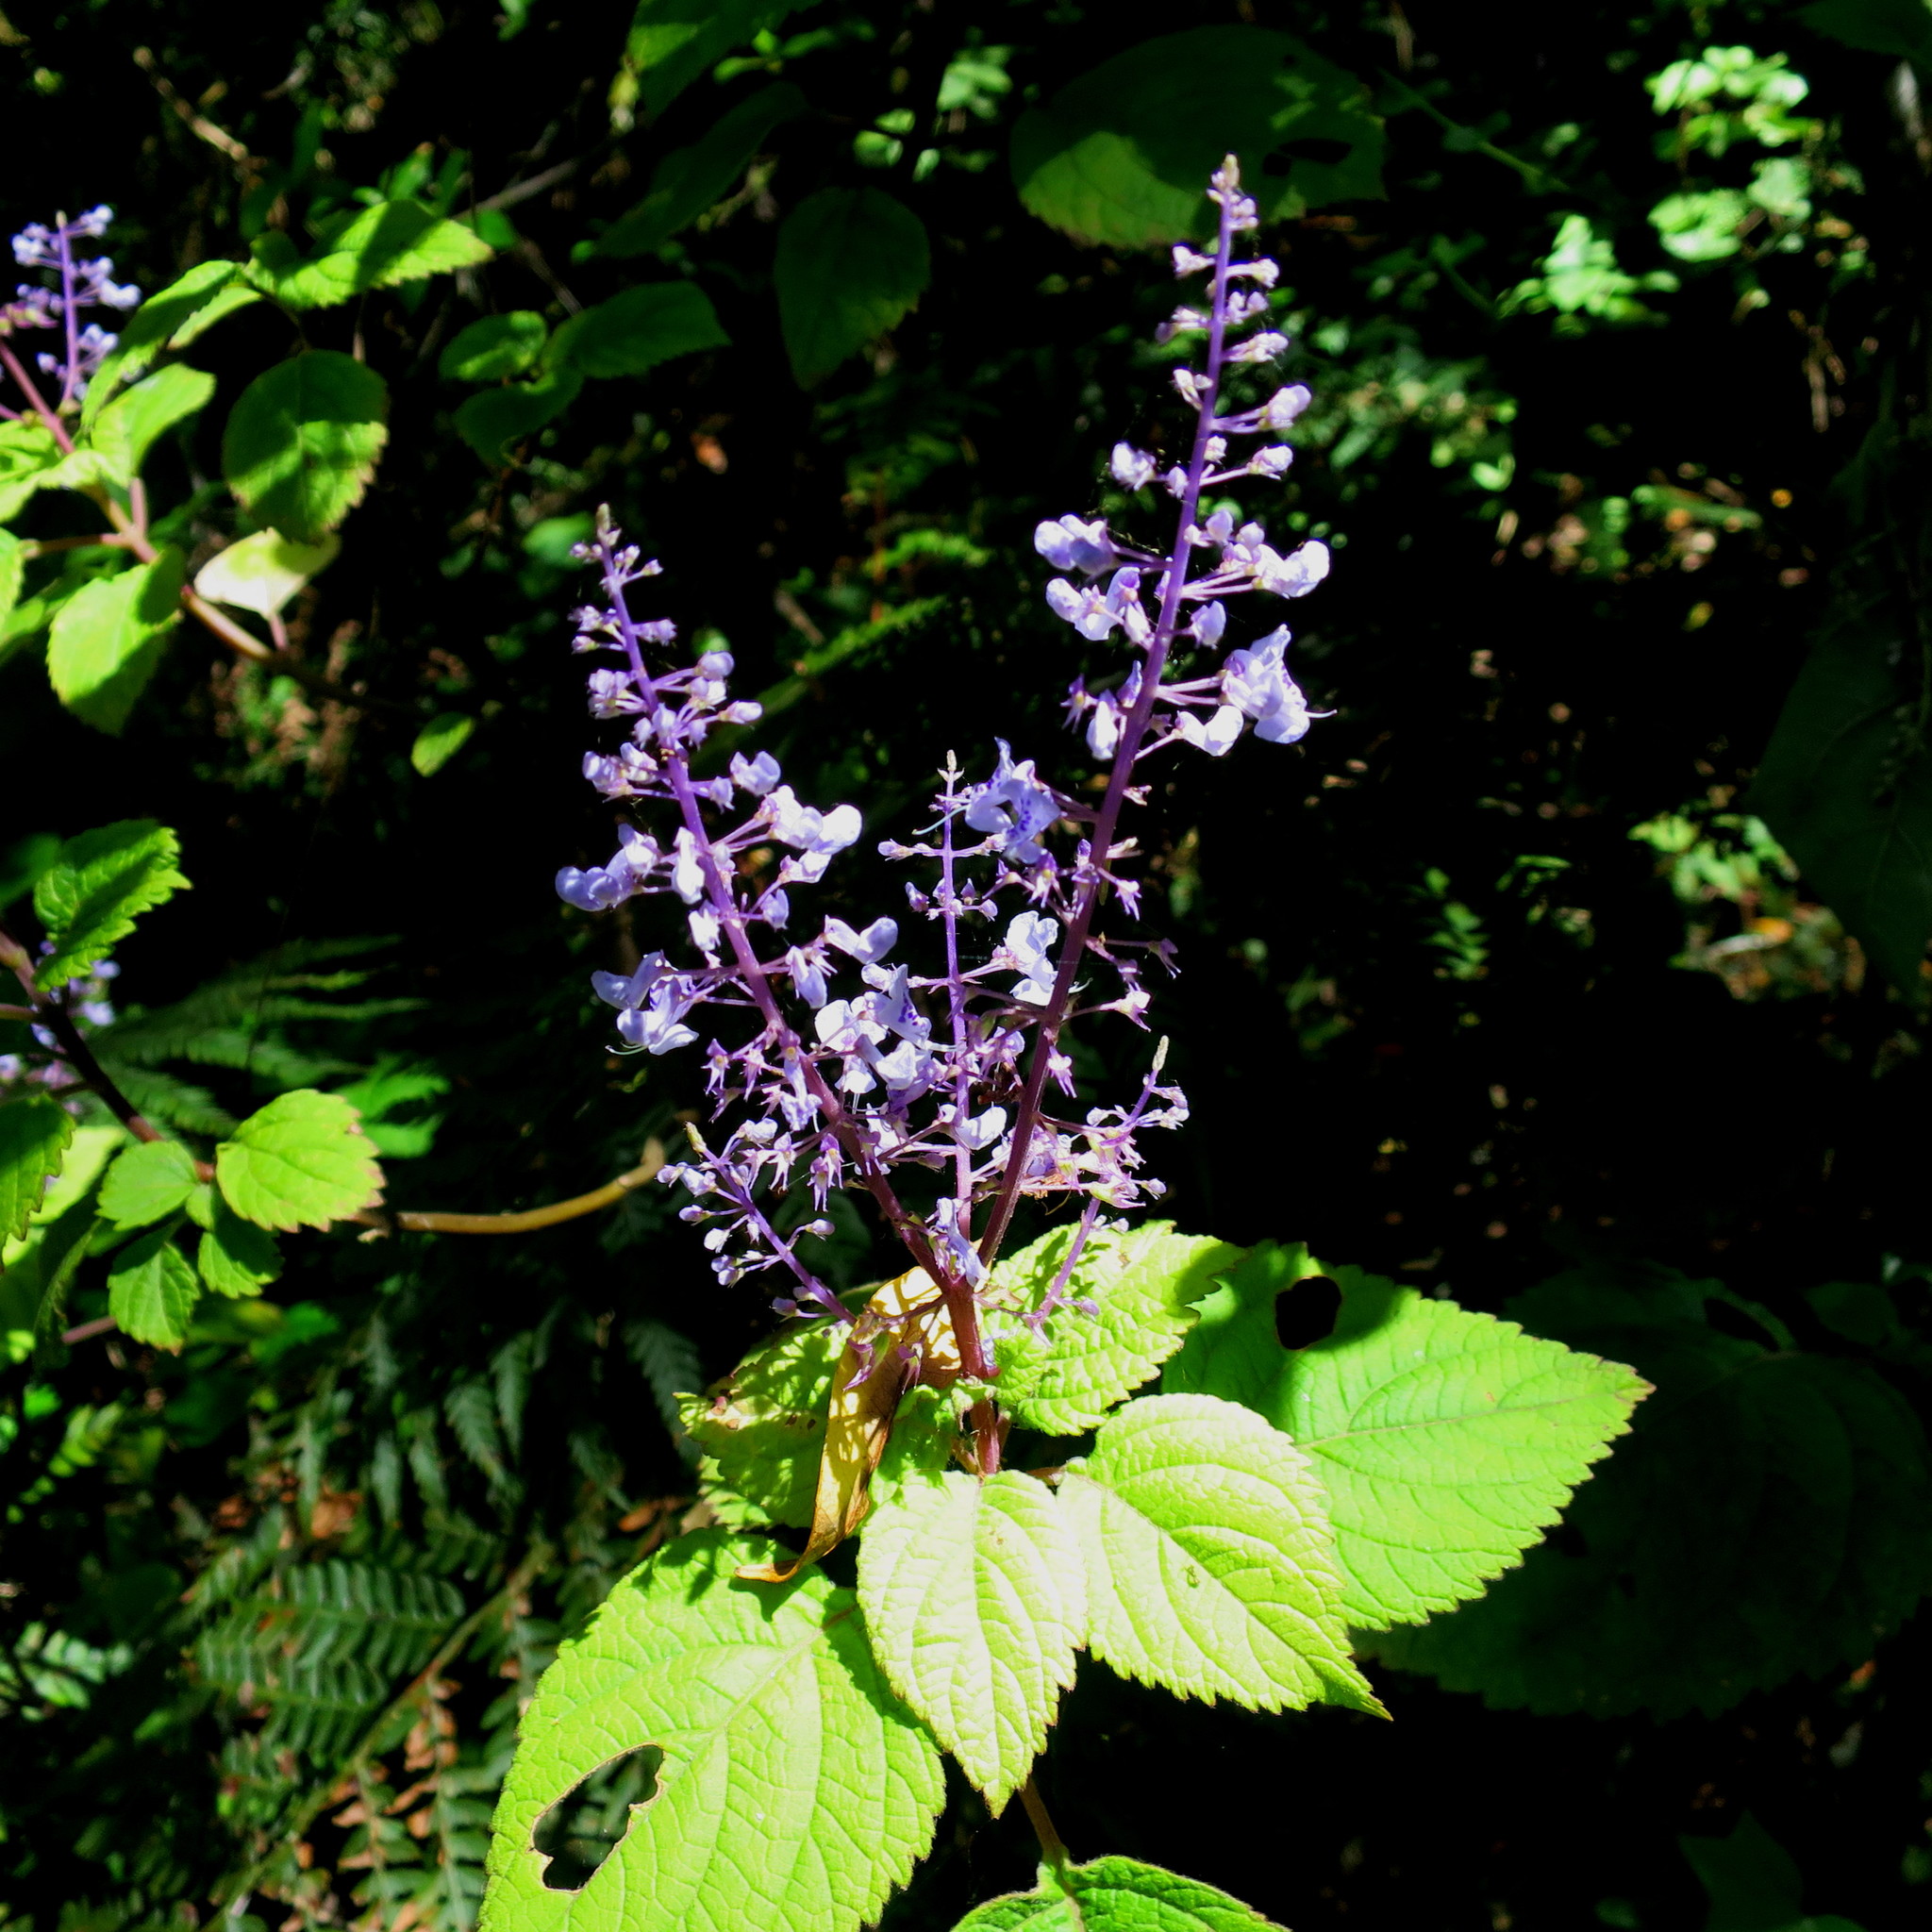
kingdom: Plantae
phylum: Tracheophyta
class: Magnoliopsida
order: Lamiales
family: Lamiaceae
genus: Plectranthus
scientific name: Plectranthus fruticosus
